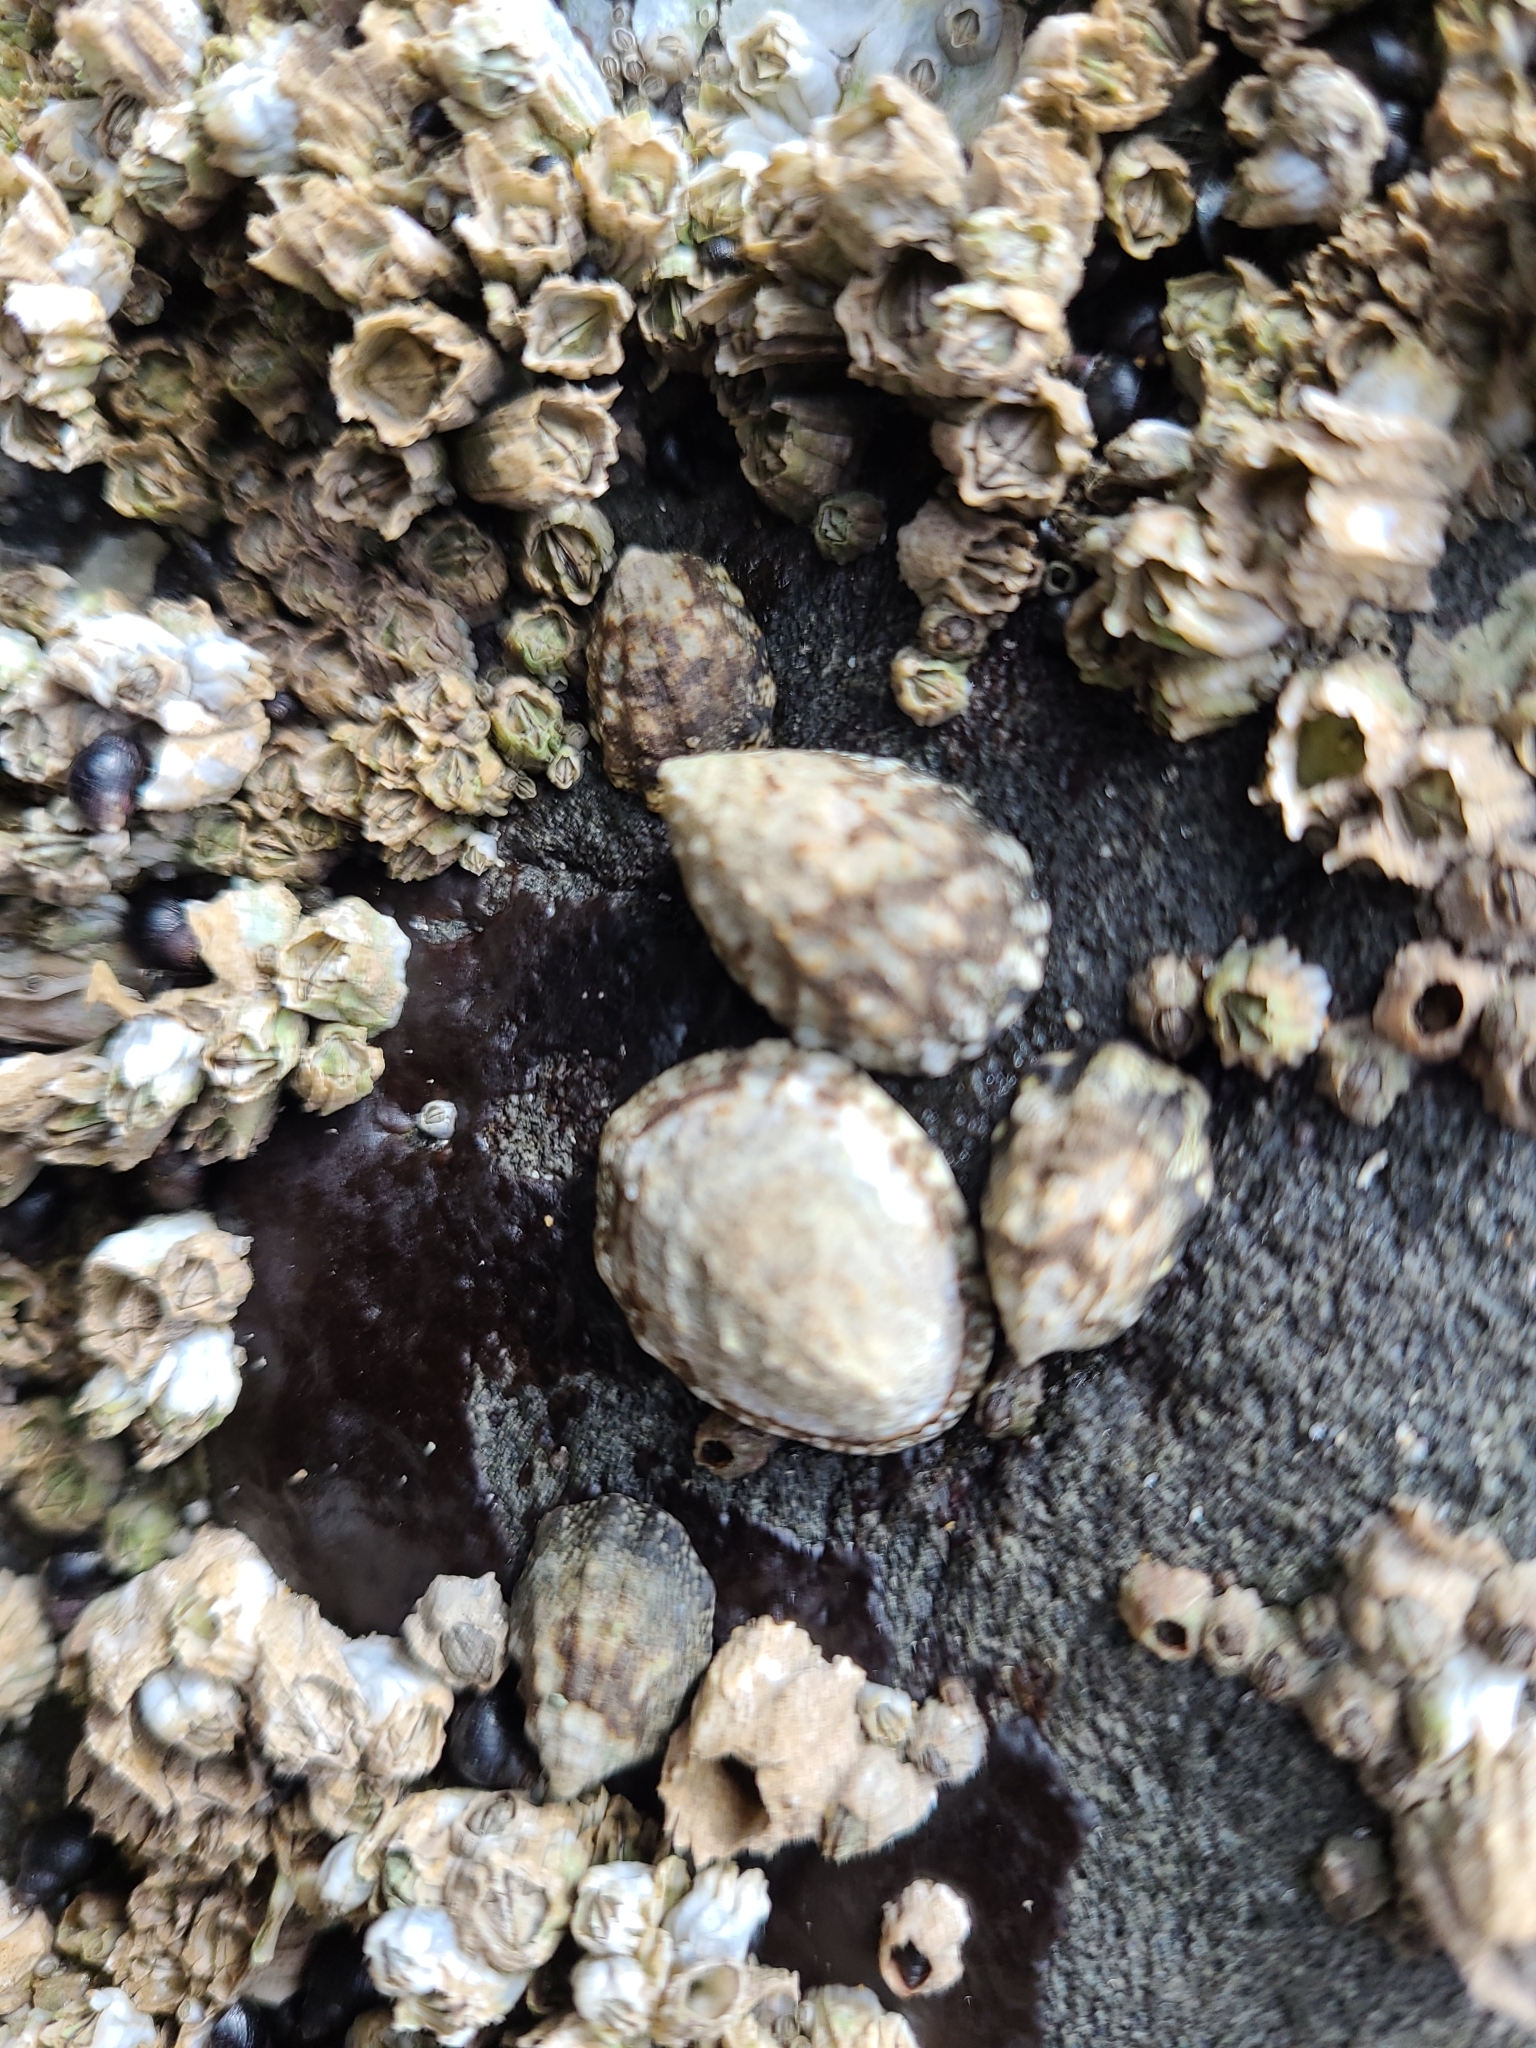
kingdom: Animalia
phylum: Mollusca
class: Gastropoda
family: Lottiidae
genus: Lottia
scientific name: Lottia digitalis
